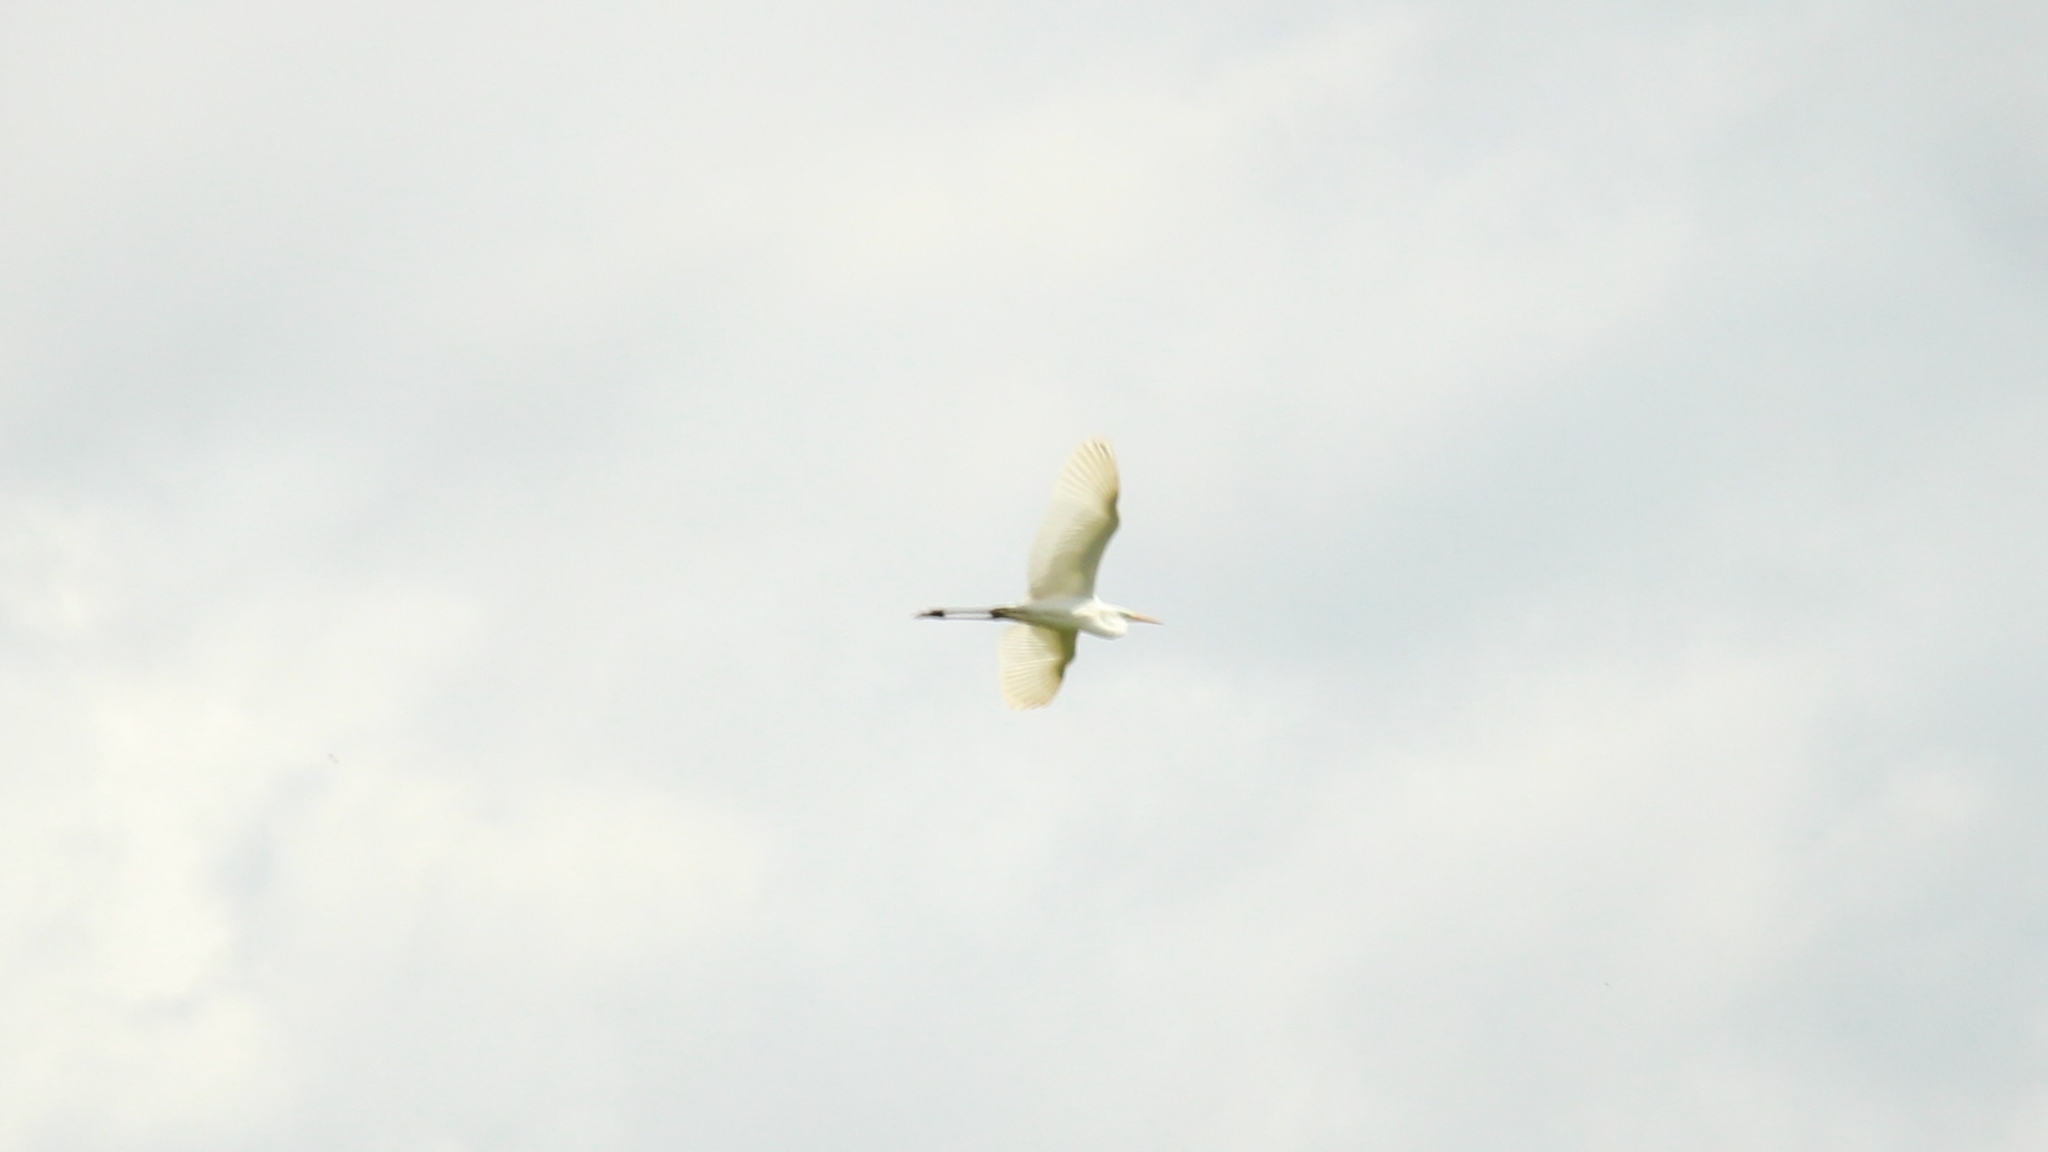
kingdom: Animalia
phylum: Chordata
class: Aves
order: Pelecaniformes
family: Ardeidae
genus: Ardea
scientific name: Ardea alba
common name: Great egret
